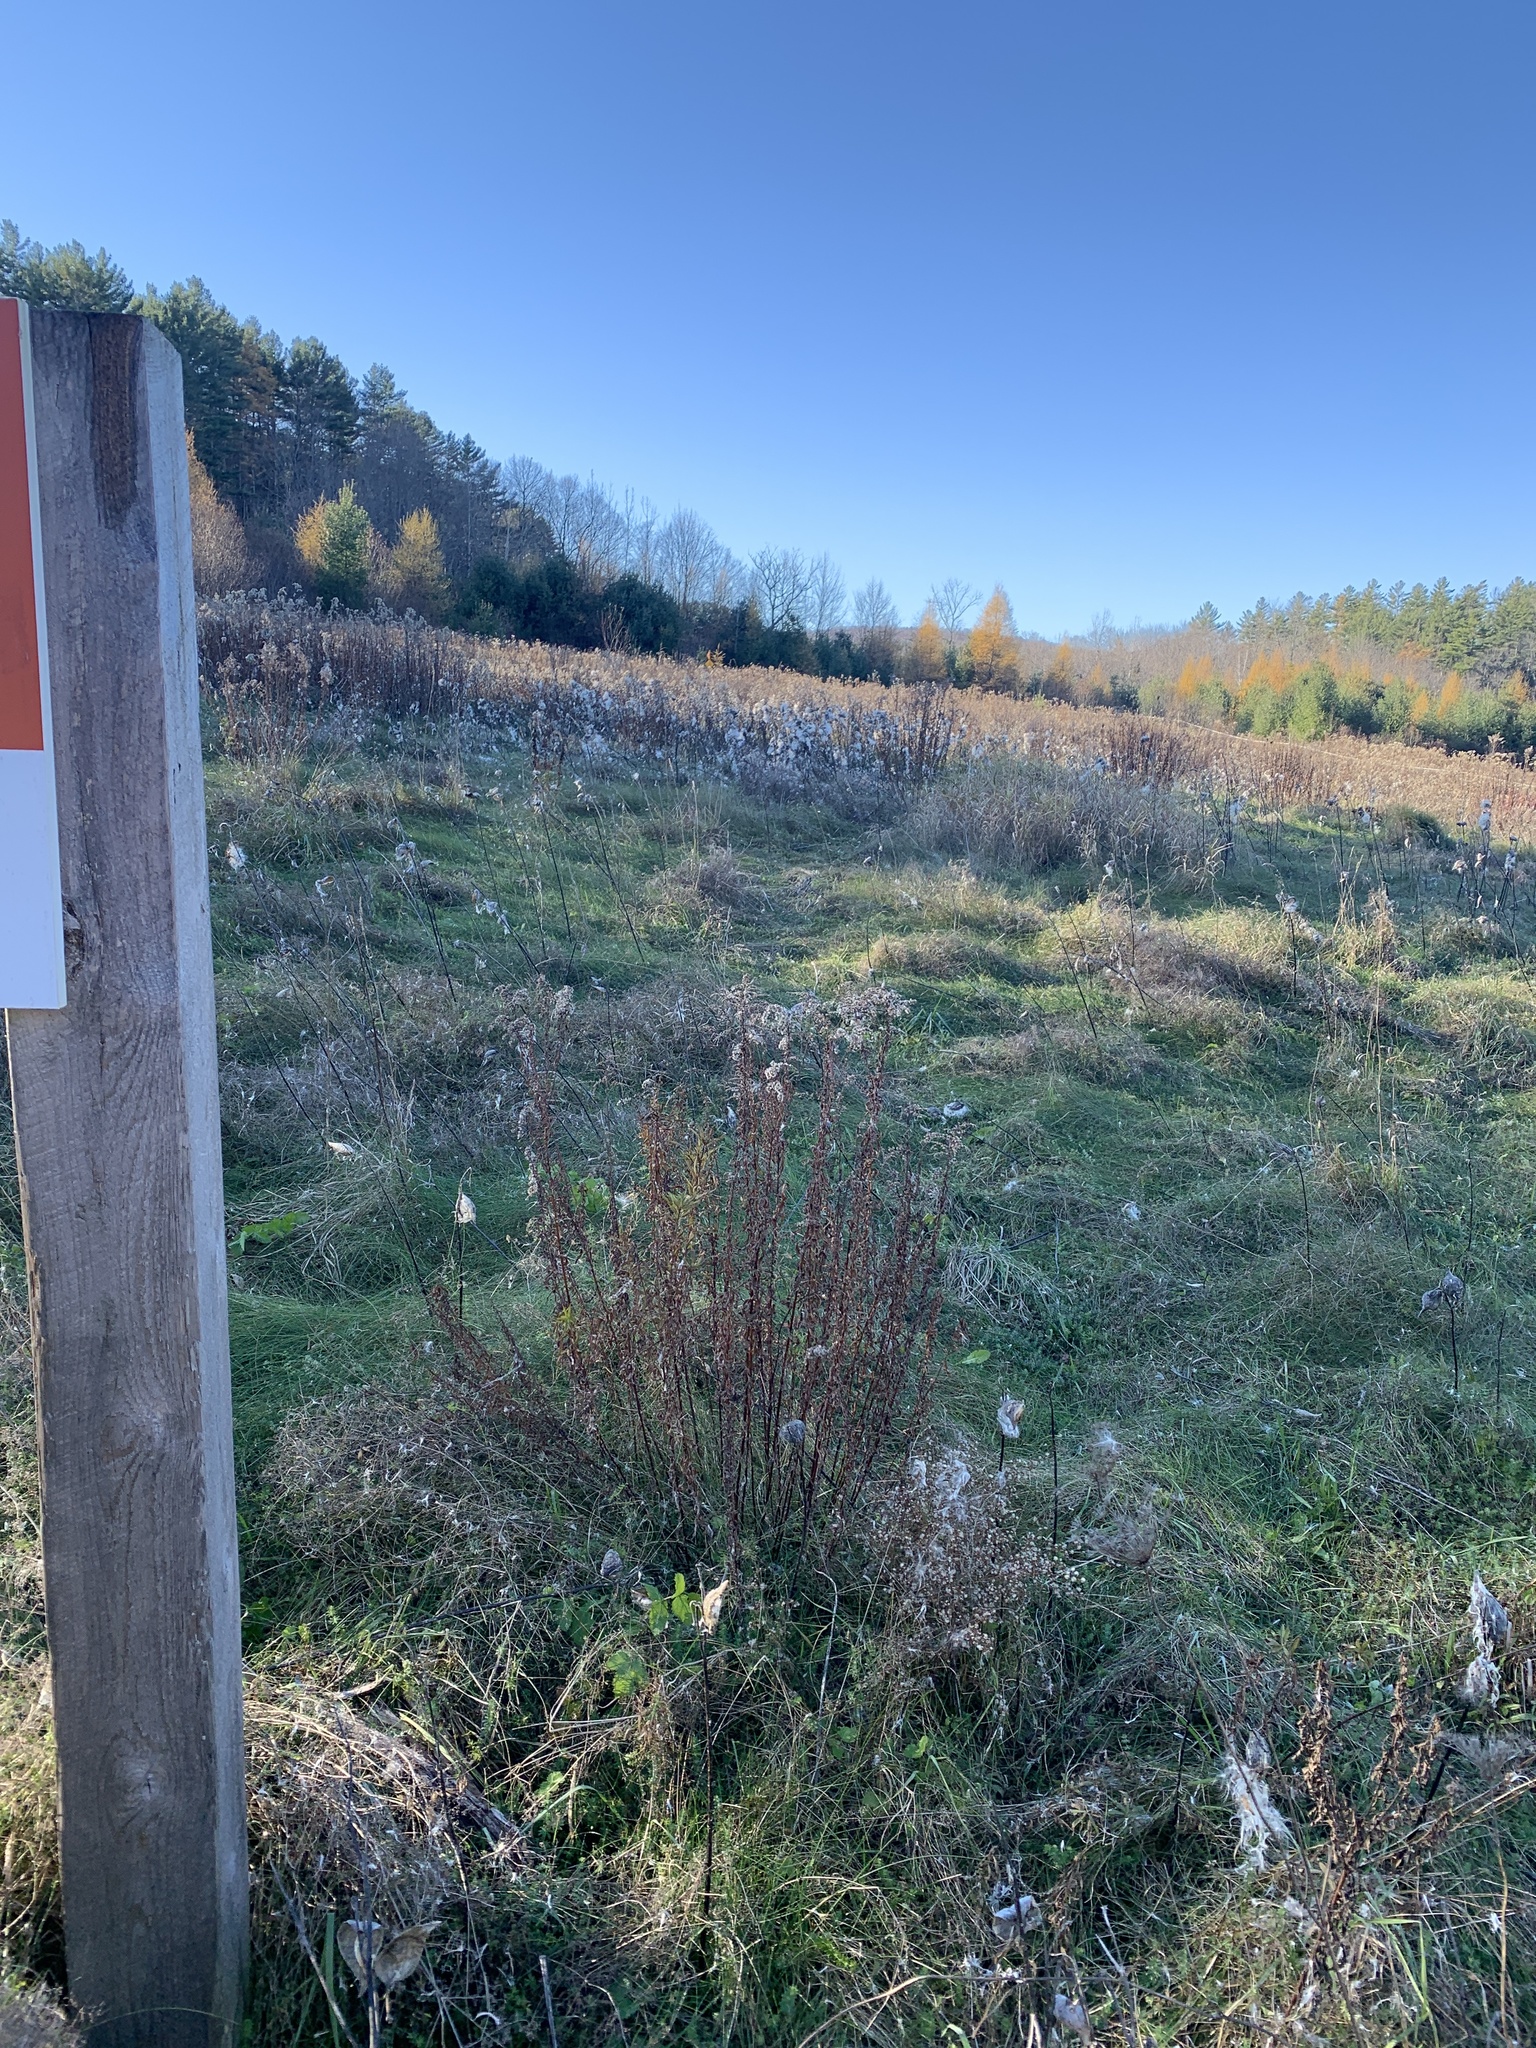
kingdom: Plantae
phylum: Tracheophyta
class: Magnoliopsida
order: Gentianales
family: Apocynaceae
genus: Asclepias
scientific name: Asclepias syriaca
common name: Common milkweed
